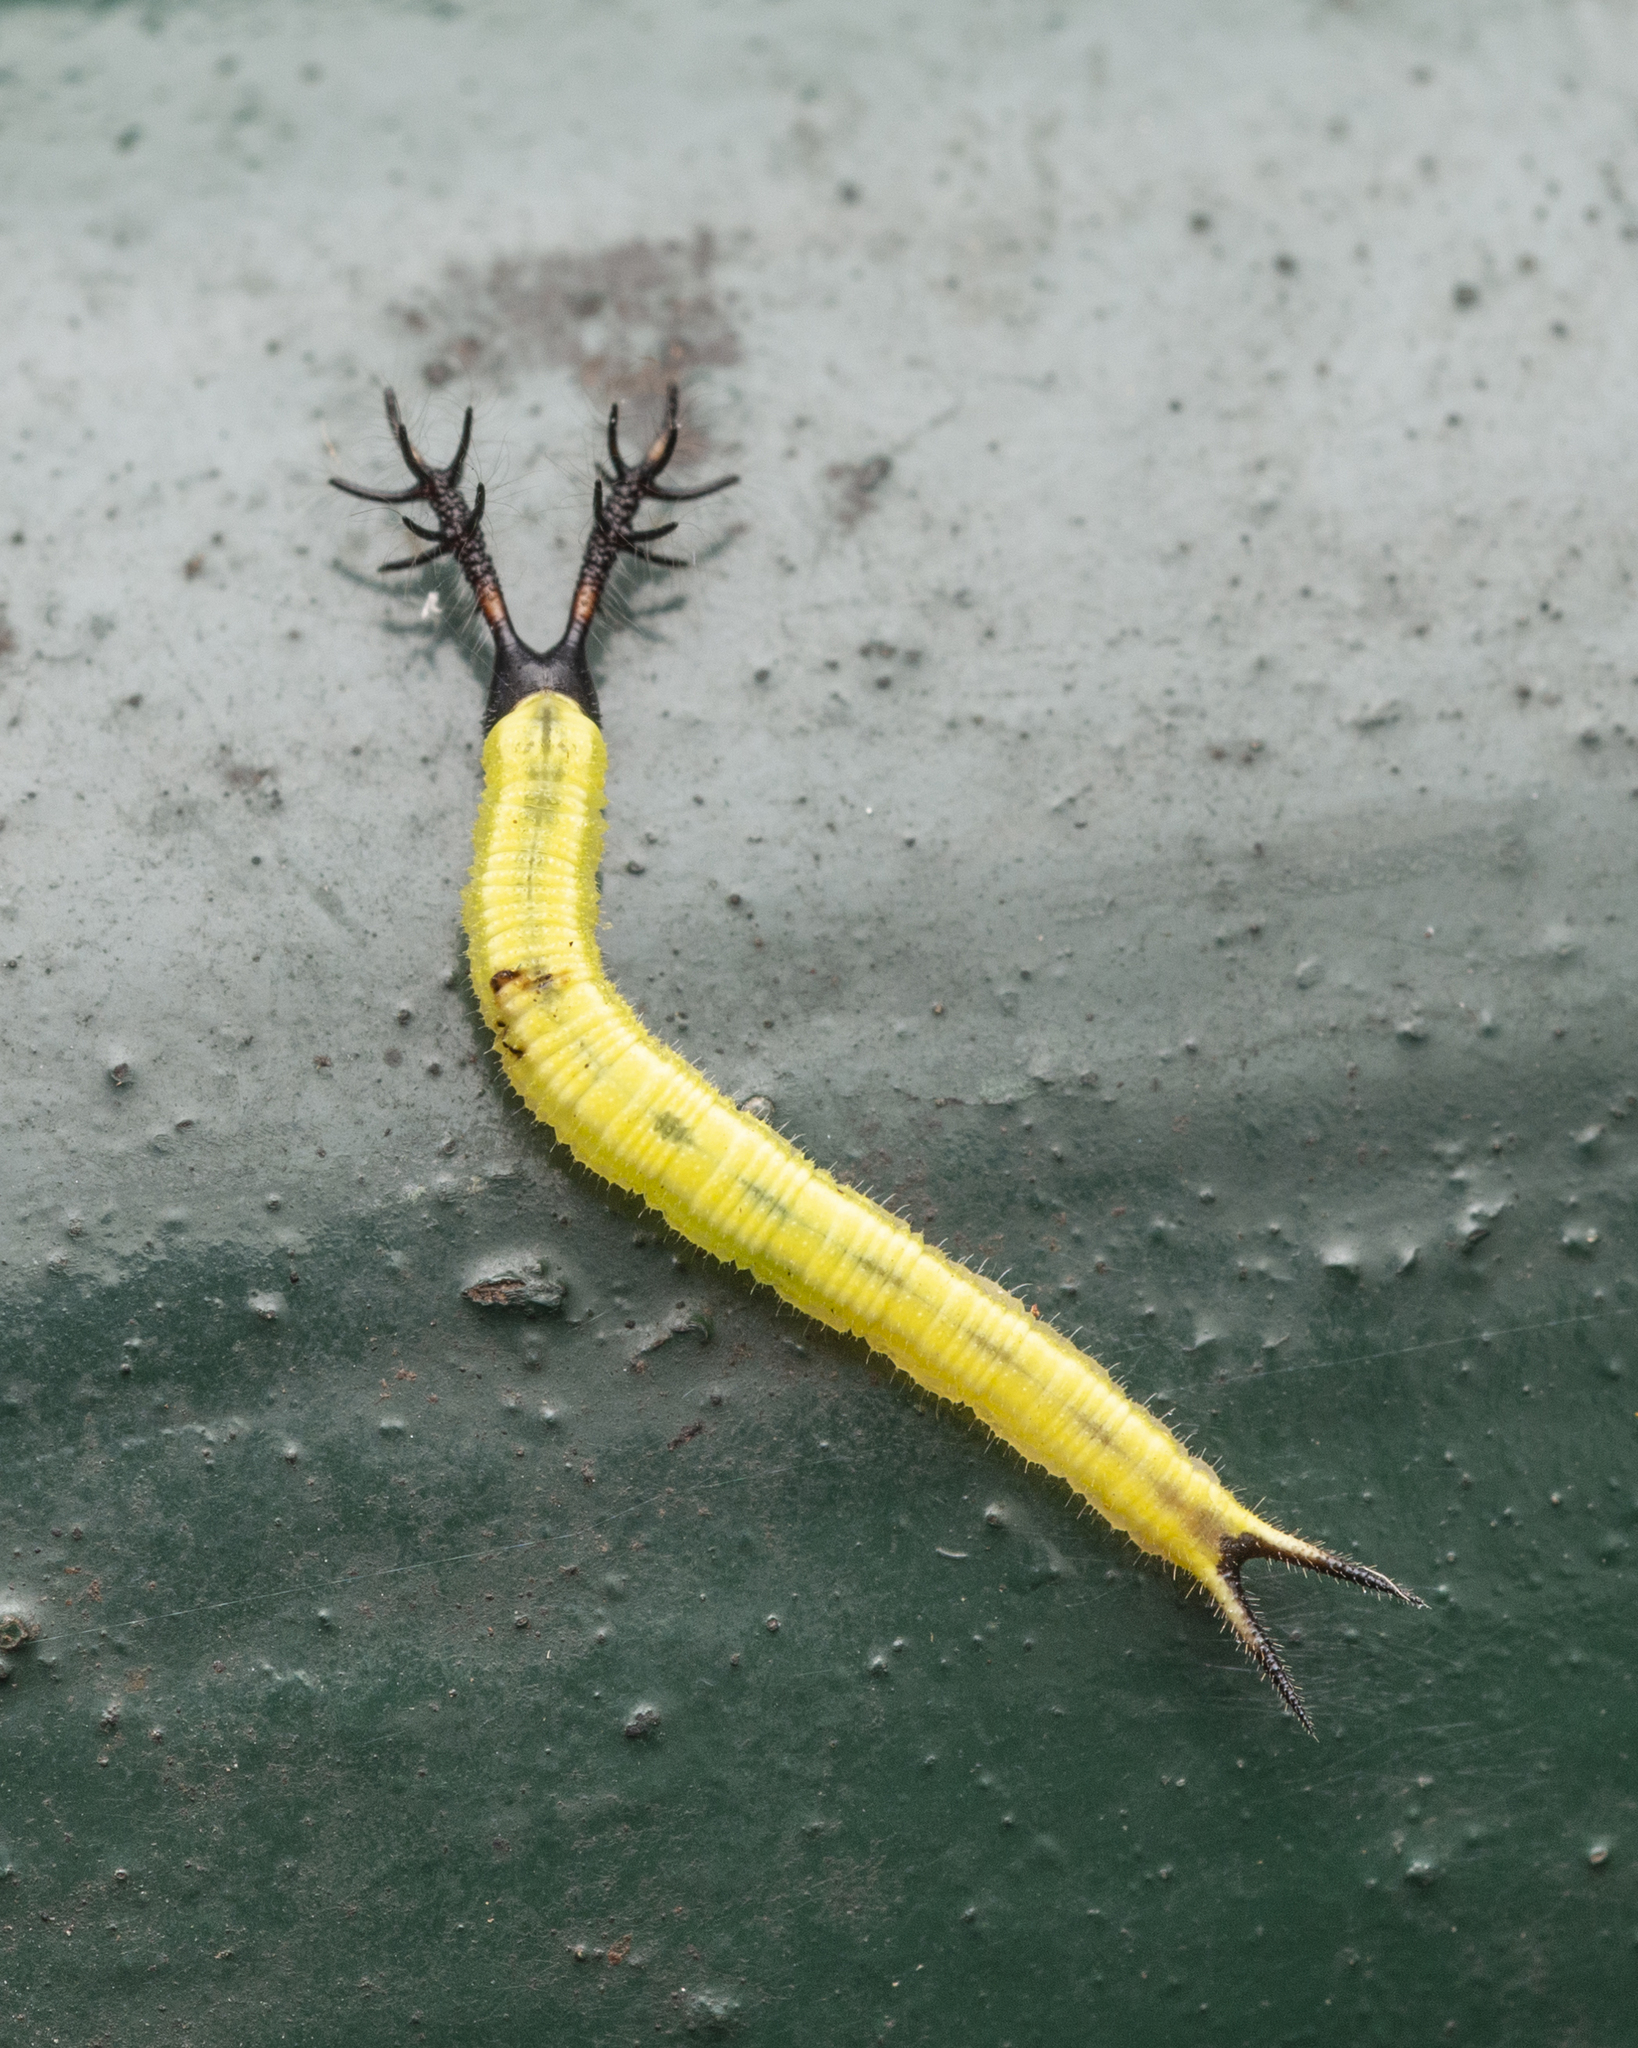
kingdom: Animalia
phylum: Arthropoda
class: Insecta
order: Lepidoptera
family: Nymphalidae
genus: Apatura
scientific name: Apatura Rohana spec
